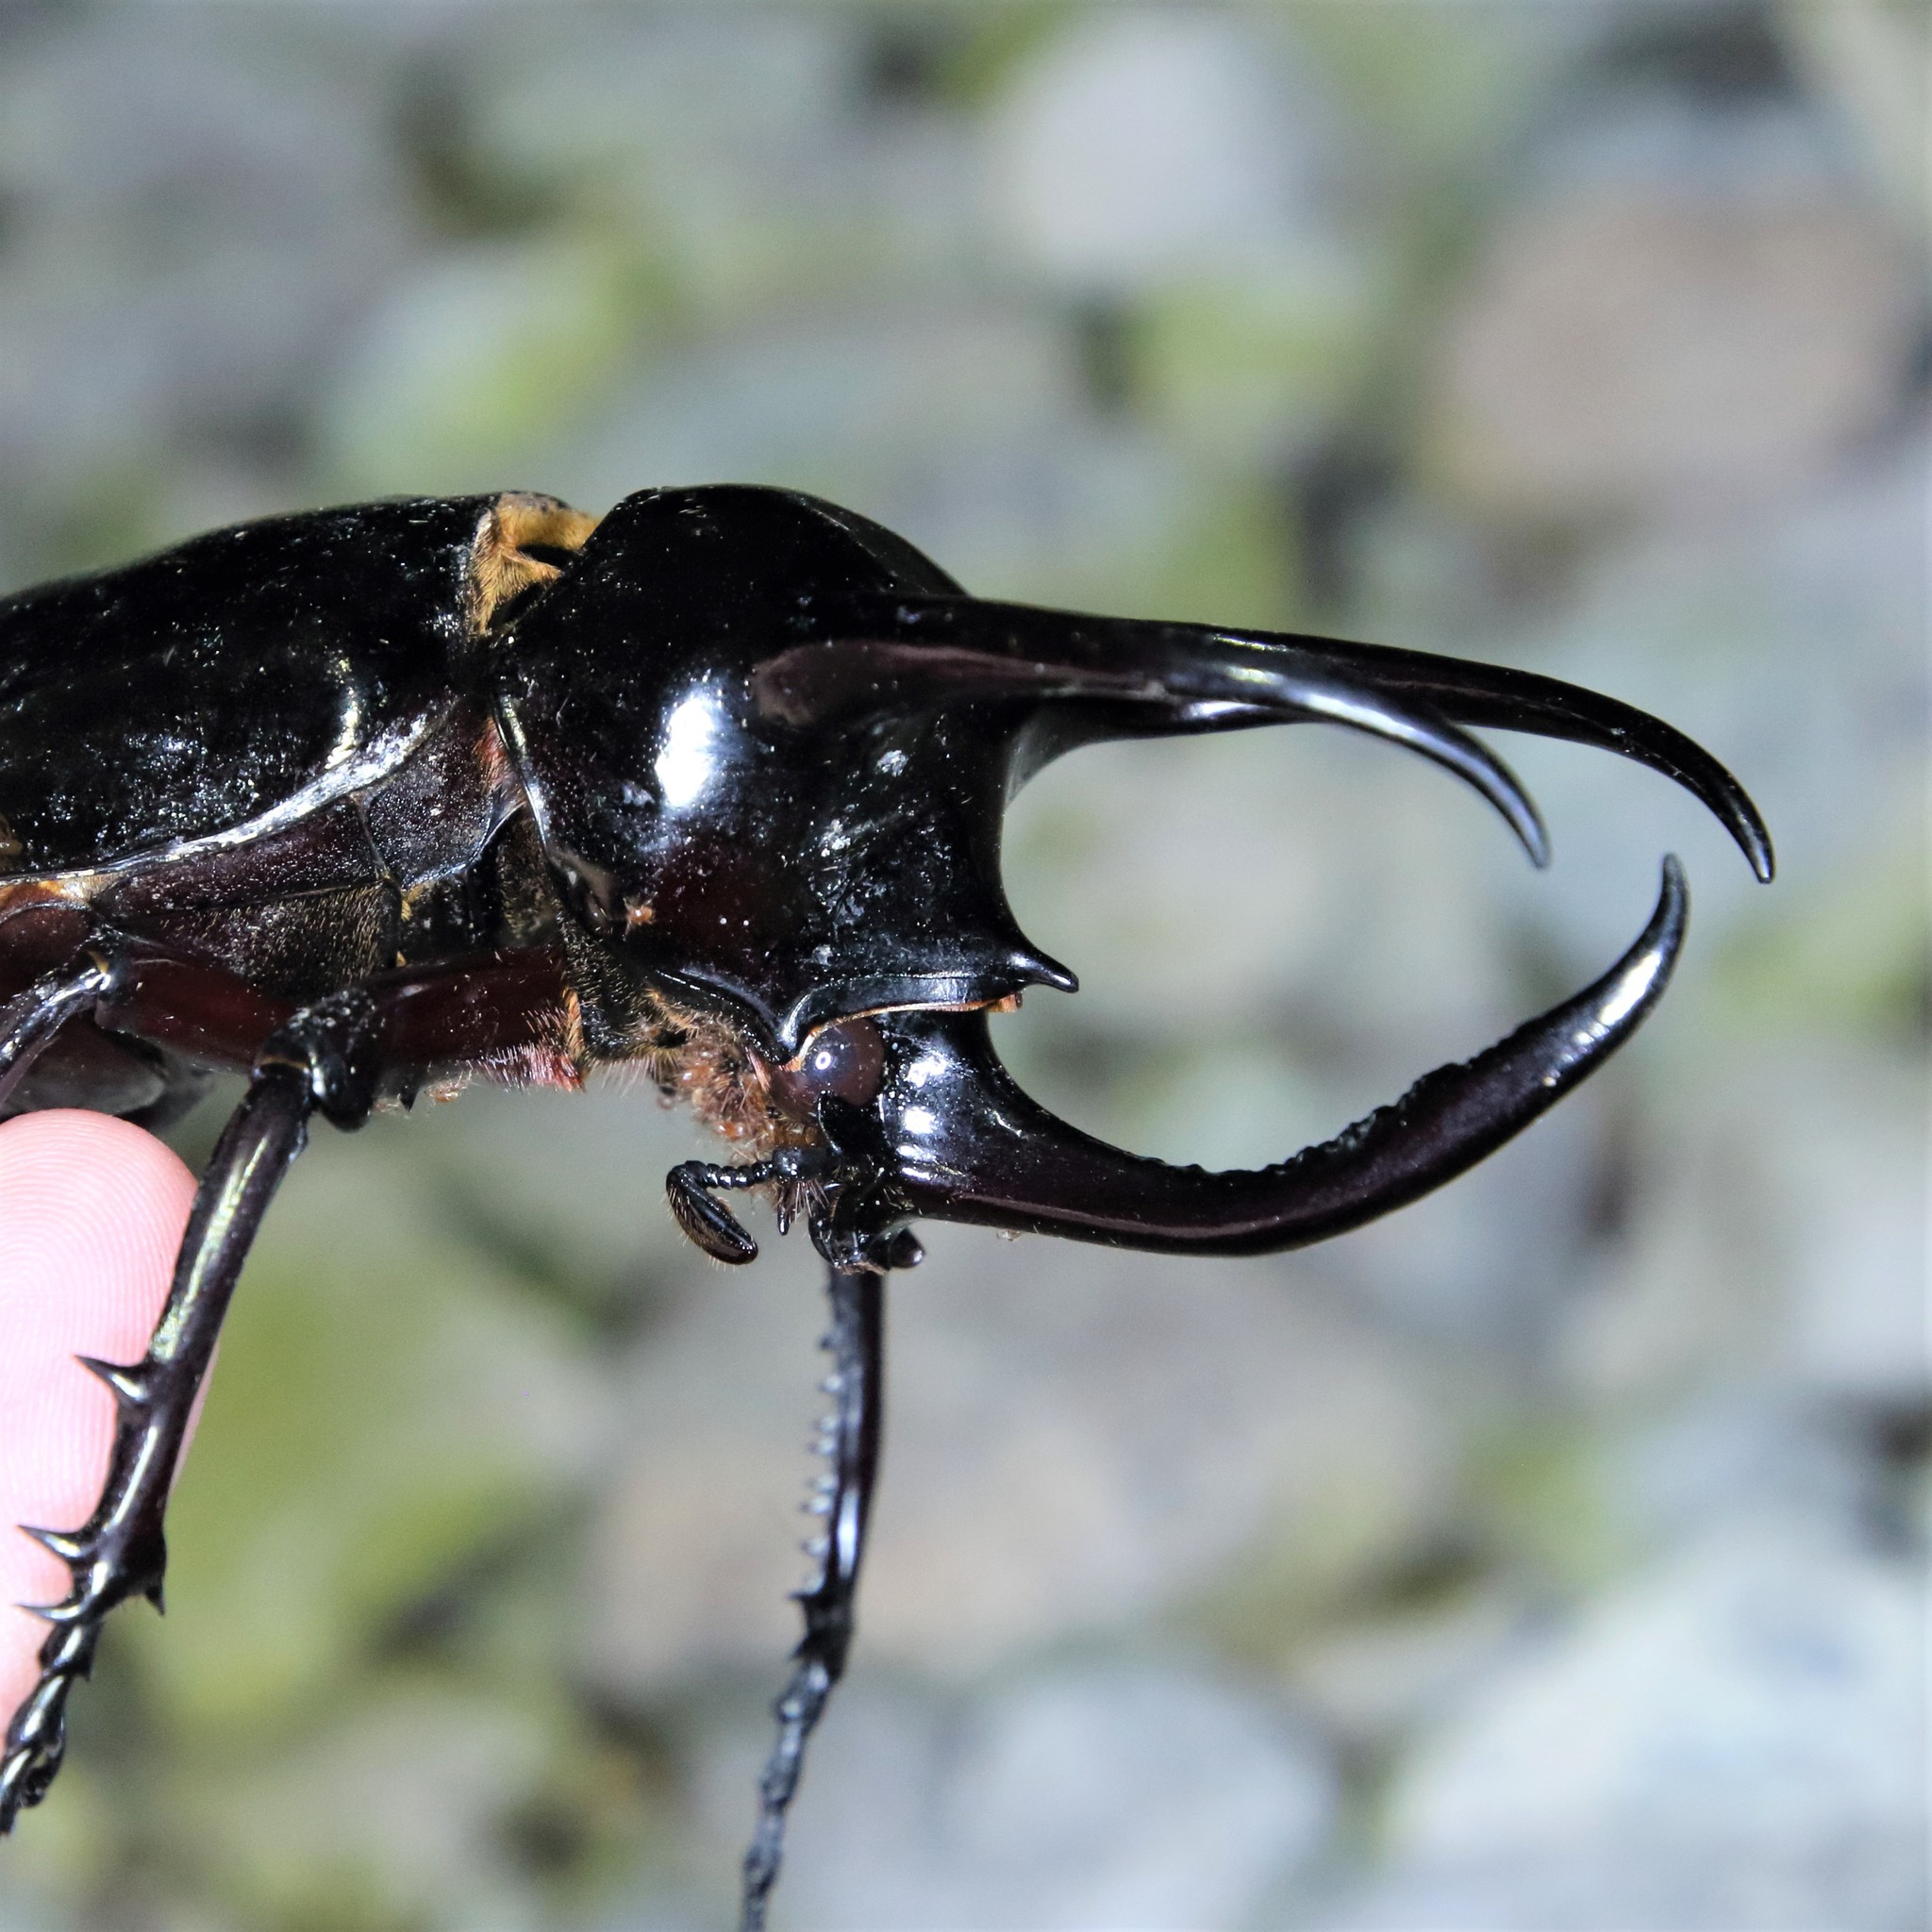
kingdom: Animalia
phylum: Arthropoda
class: Insecta
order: Coleoptera
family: Scarabaeidae
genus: Chalcosoma
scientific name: Chalcosoma atlas
